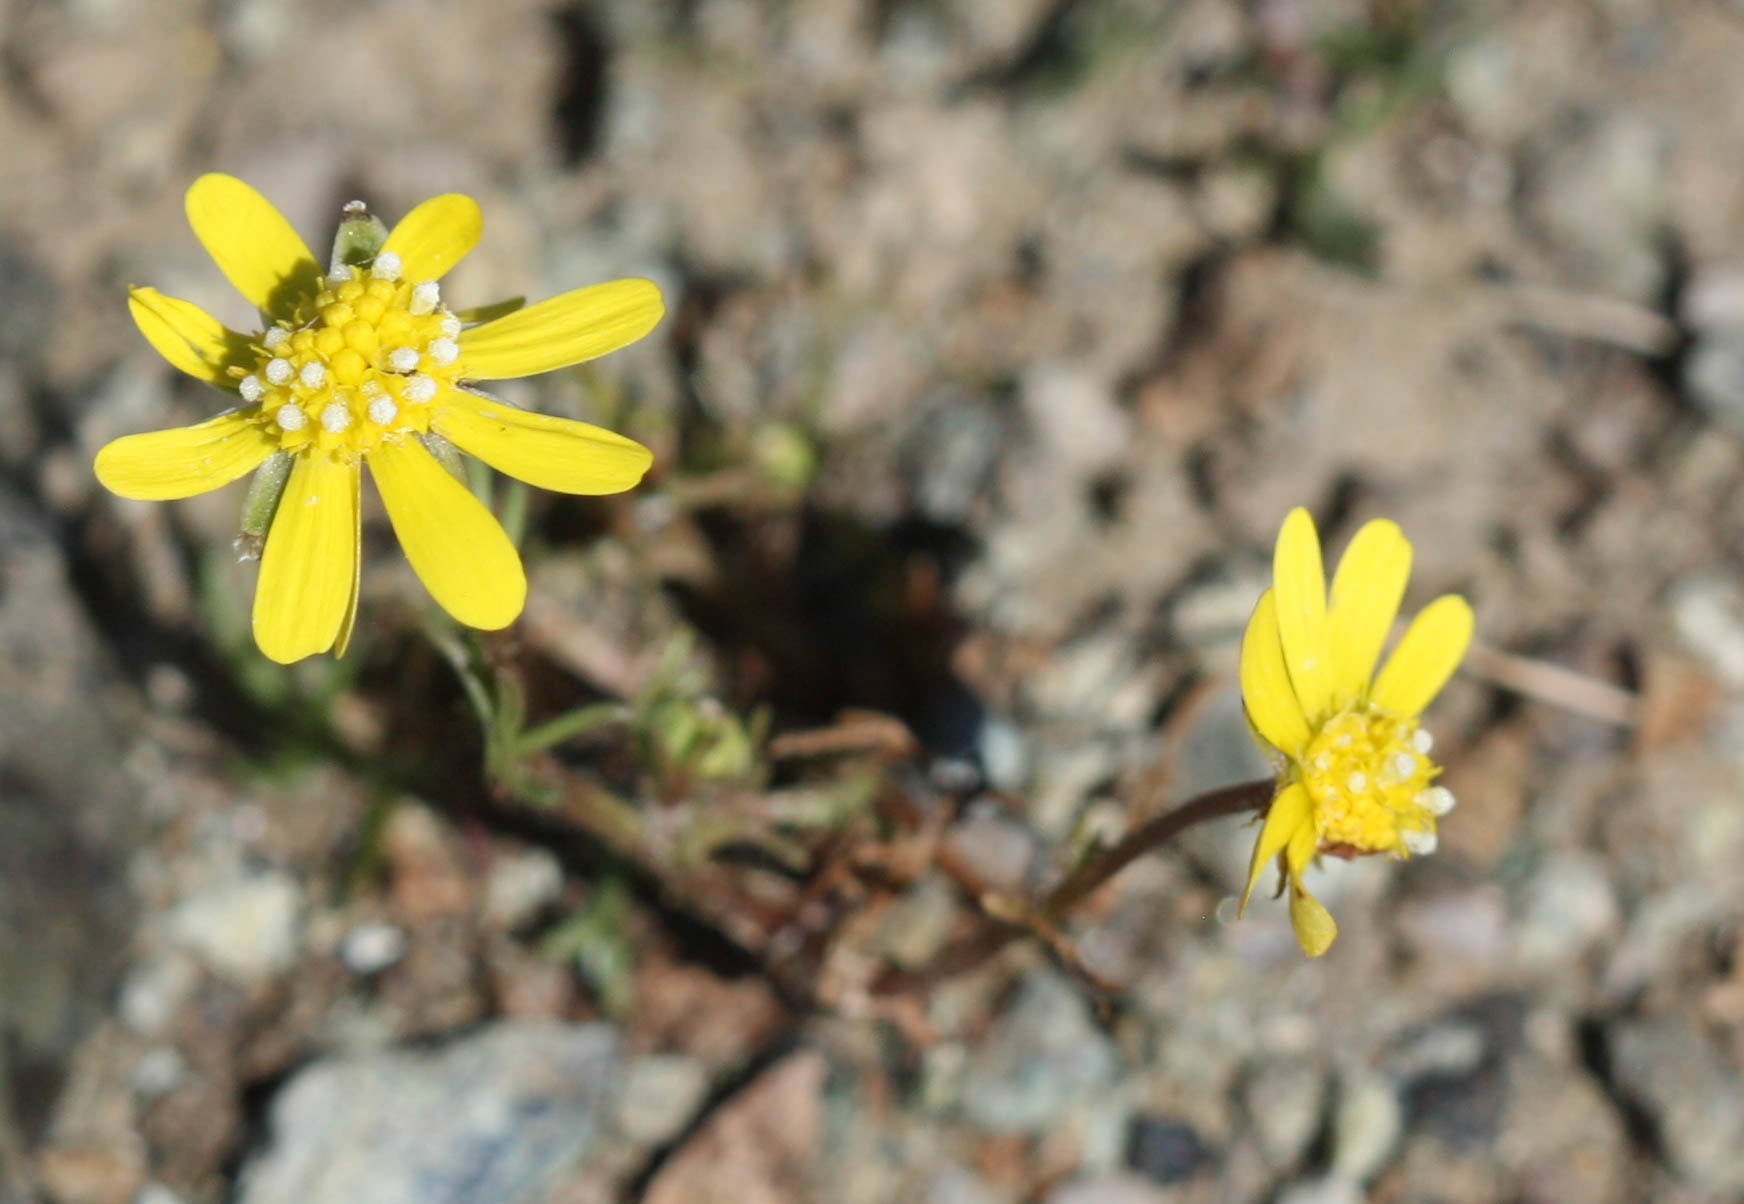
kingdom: Plantae
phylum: Tracheophyta
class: Magnoliopsida
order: Asterales
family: Asteraceae
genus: Blennosperma
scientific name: Blennosperma nanum
